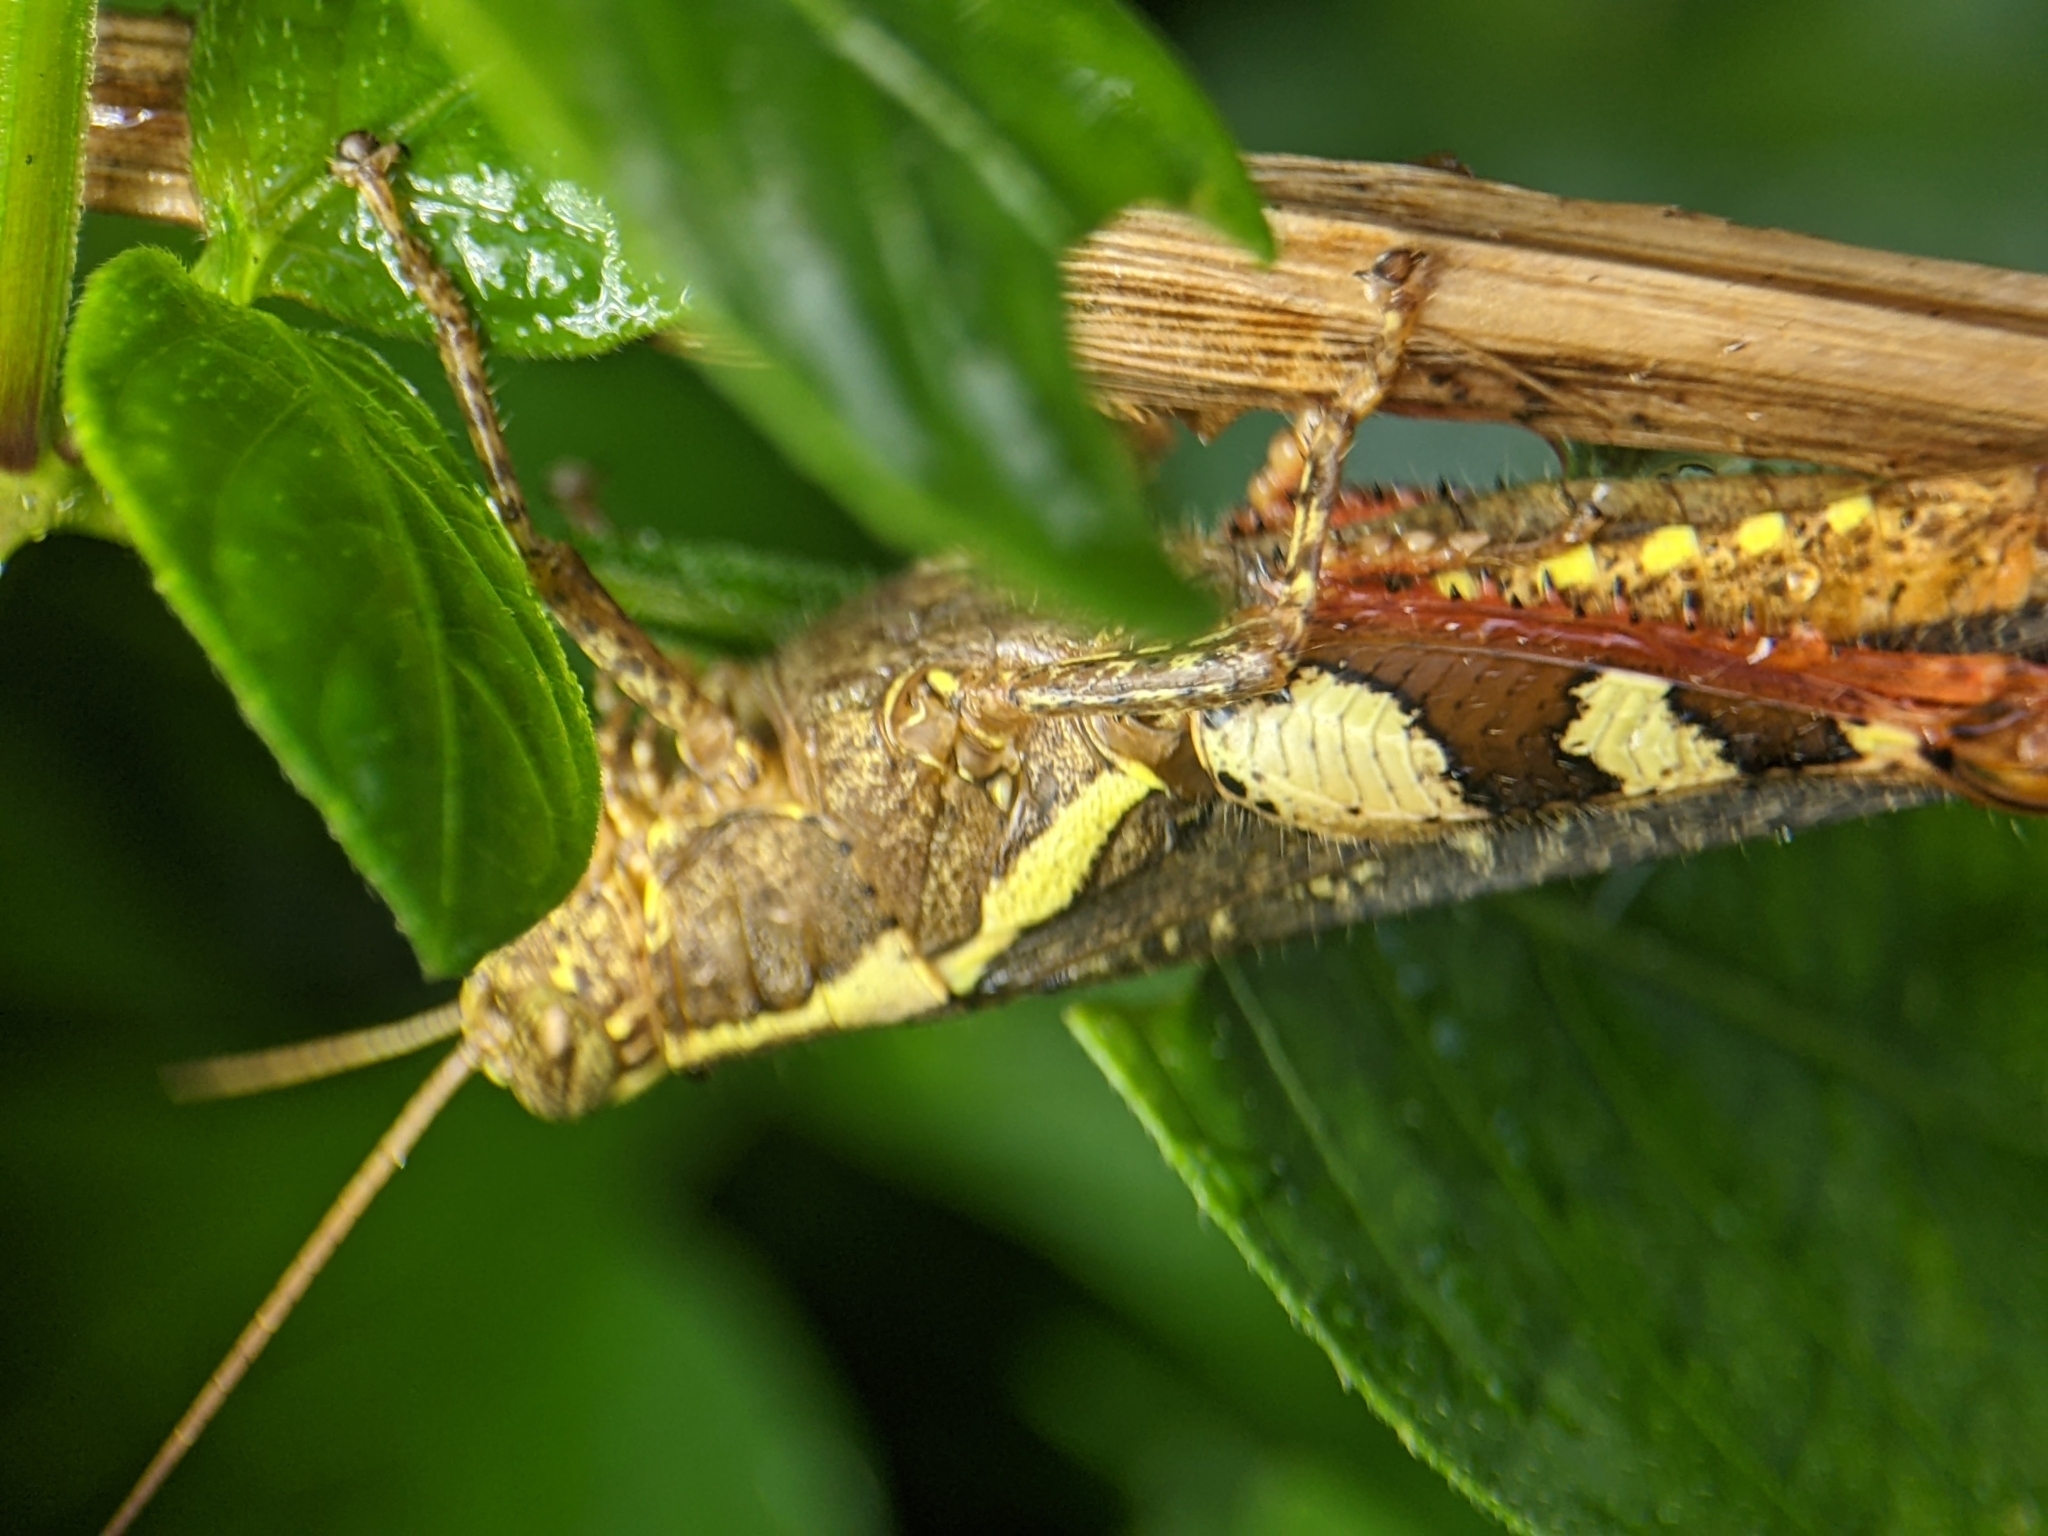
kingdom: Animalia
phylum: Arthropoda
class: Insecta
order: Orthoptera
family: Acrididae
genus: Xenocatantops
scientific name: Xenocatantops humile
